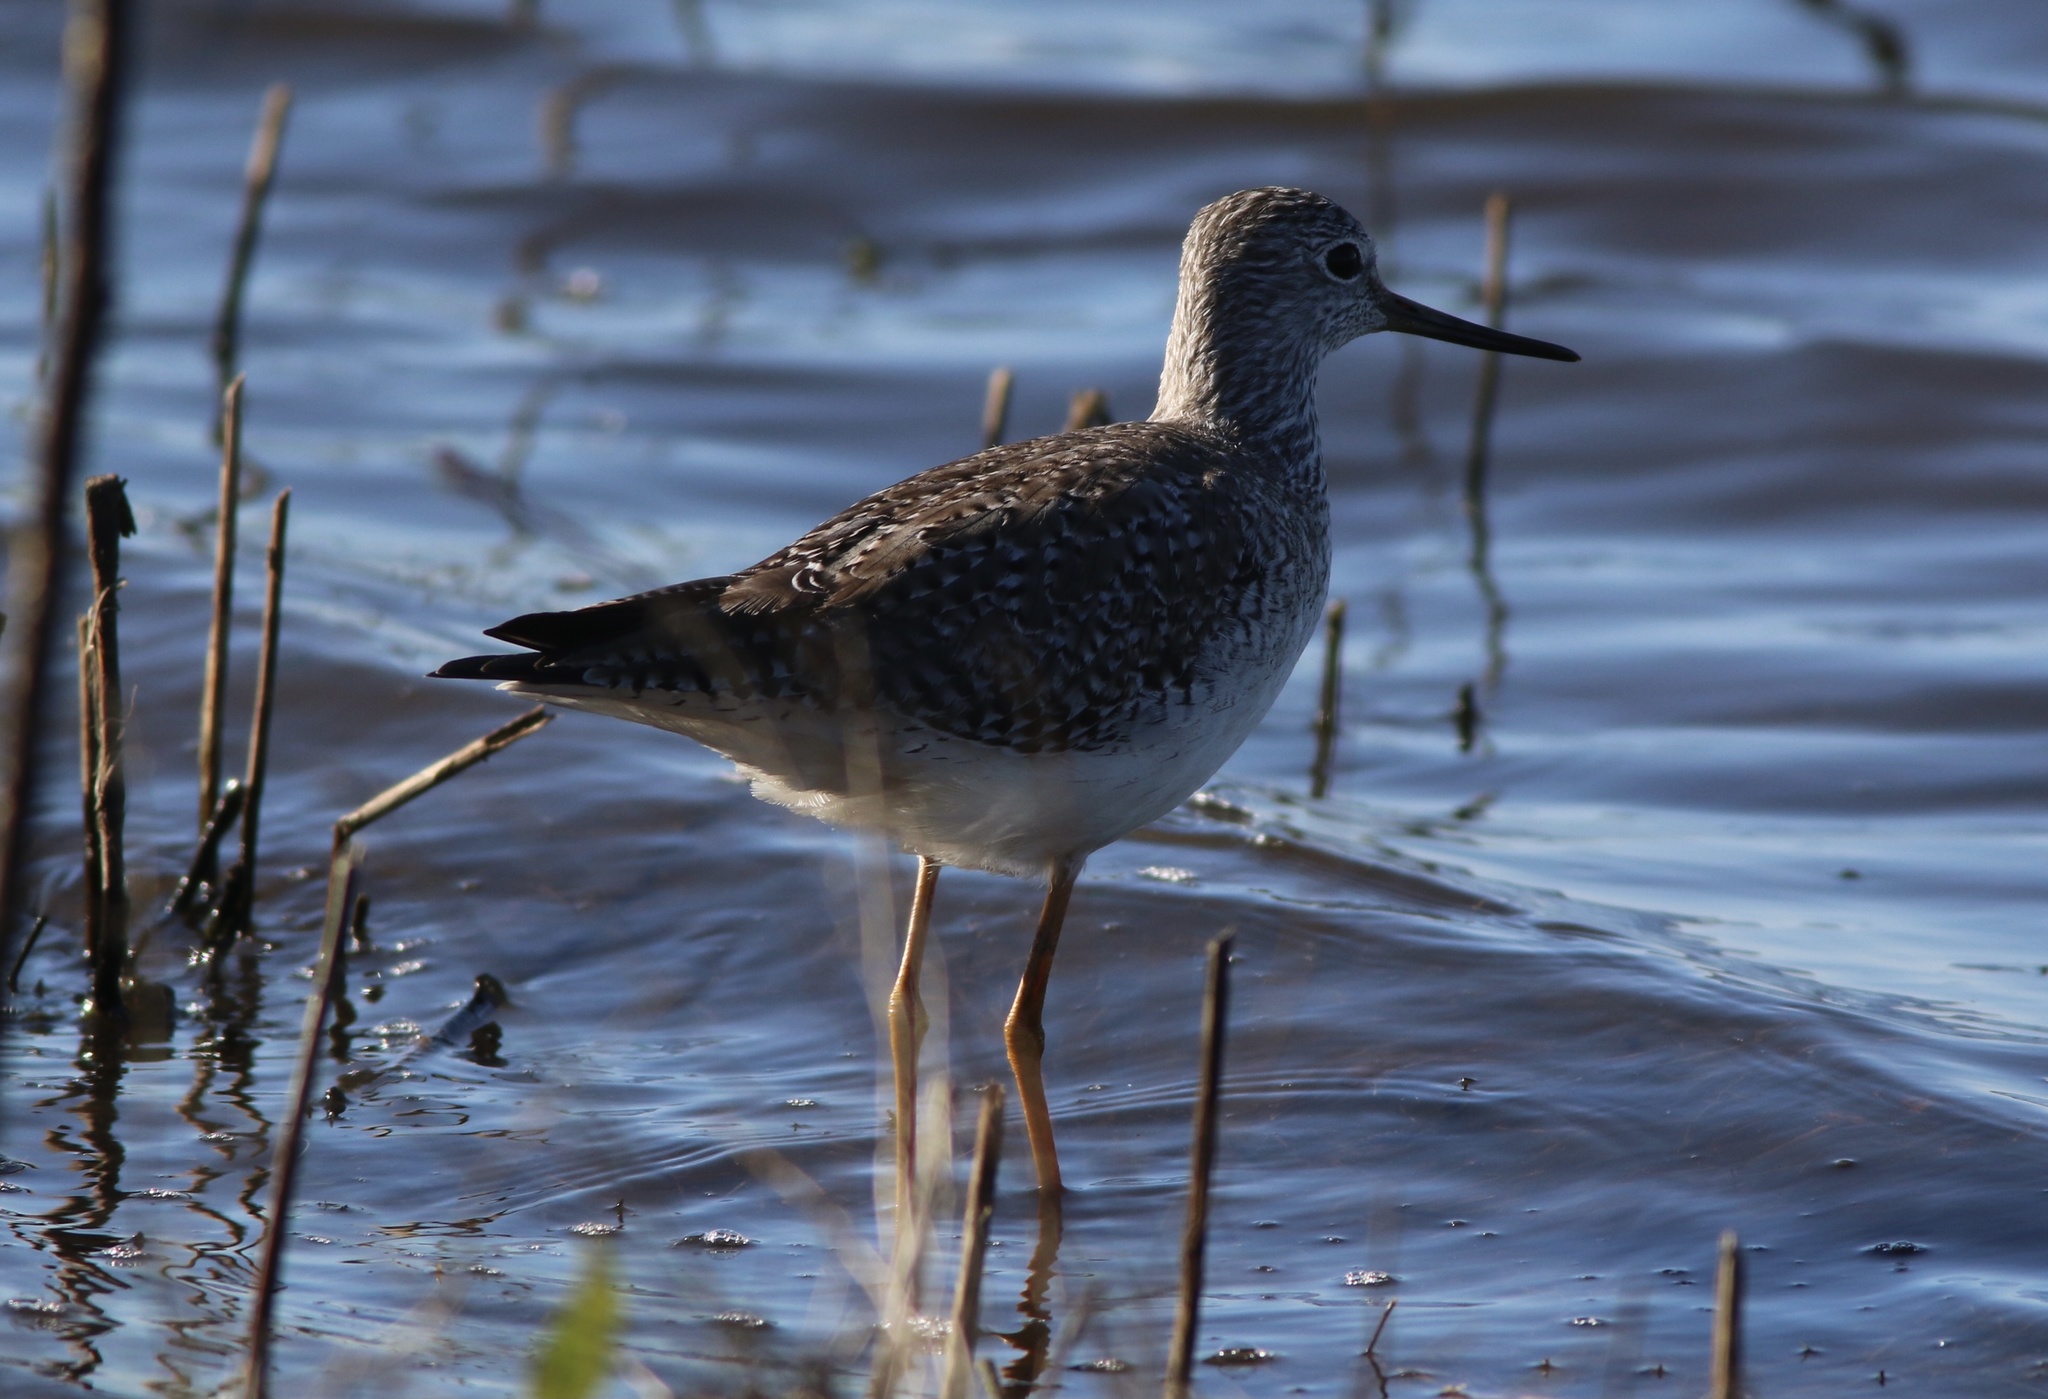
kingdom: Animalia
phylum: Chordata
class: Aves
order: Charadriiformes
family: Scolopacidae
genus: Tringa
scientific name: Tringa melanoleuca
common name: Greater yellowlegs
